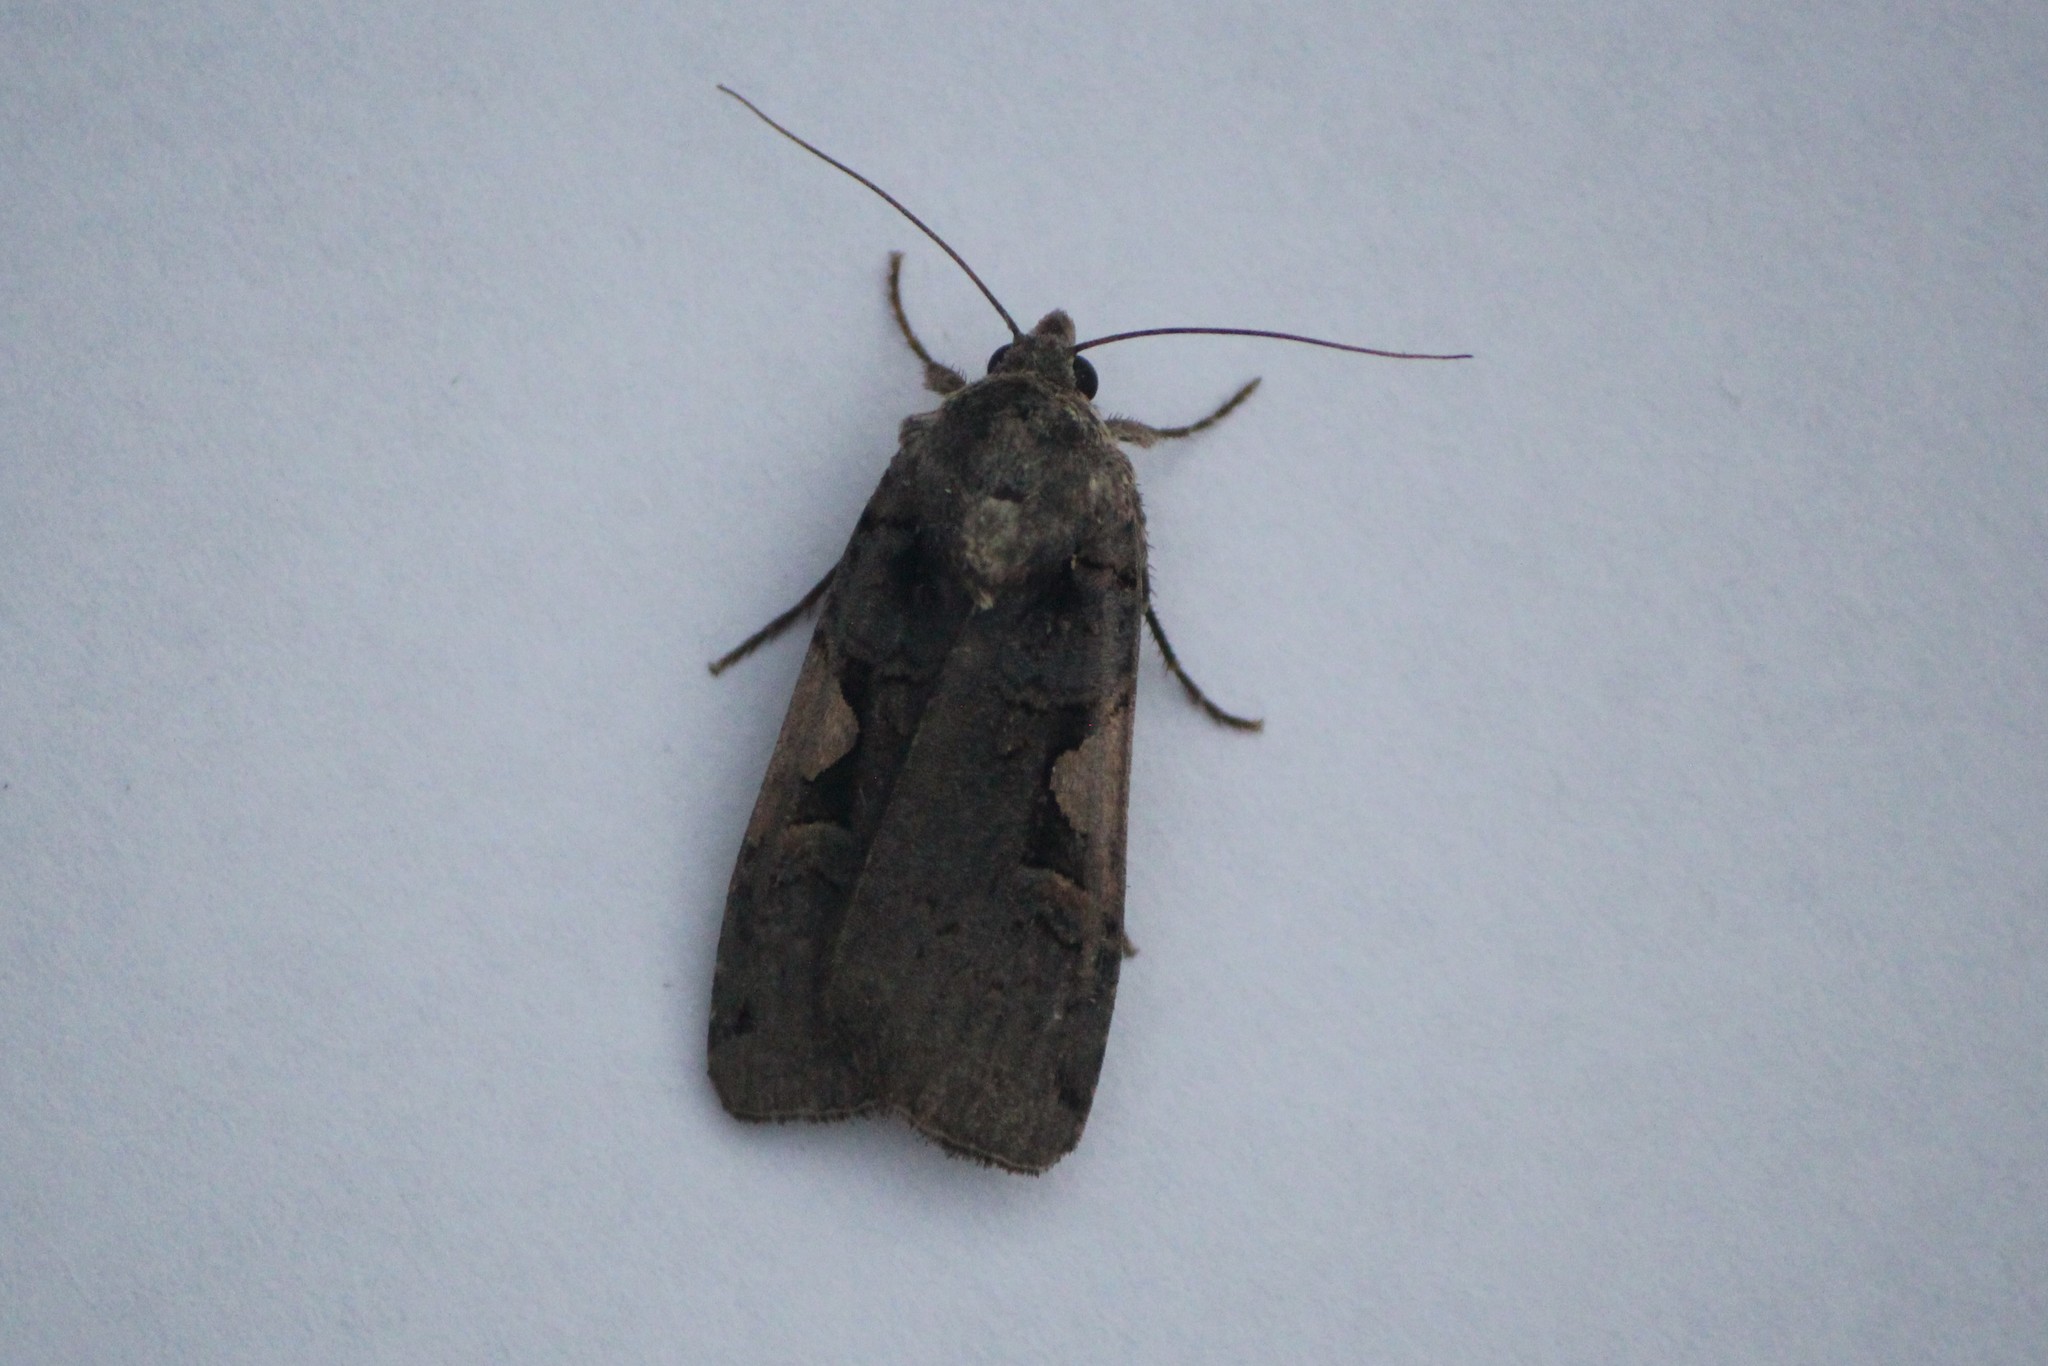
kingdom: Animalia
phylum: Arthropoda
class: Insecta
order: Lepidoptera
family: Noctuidae
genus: Xestia
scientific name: Xestia dolosa
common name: Cutworm moth
